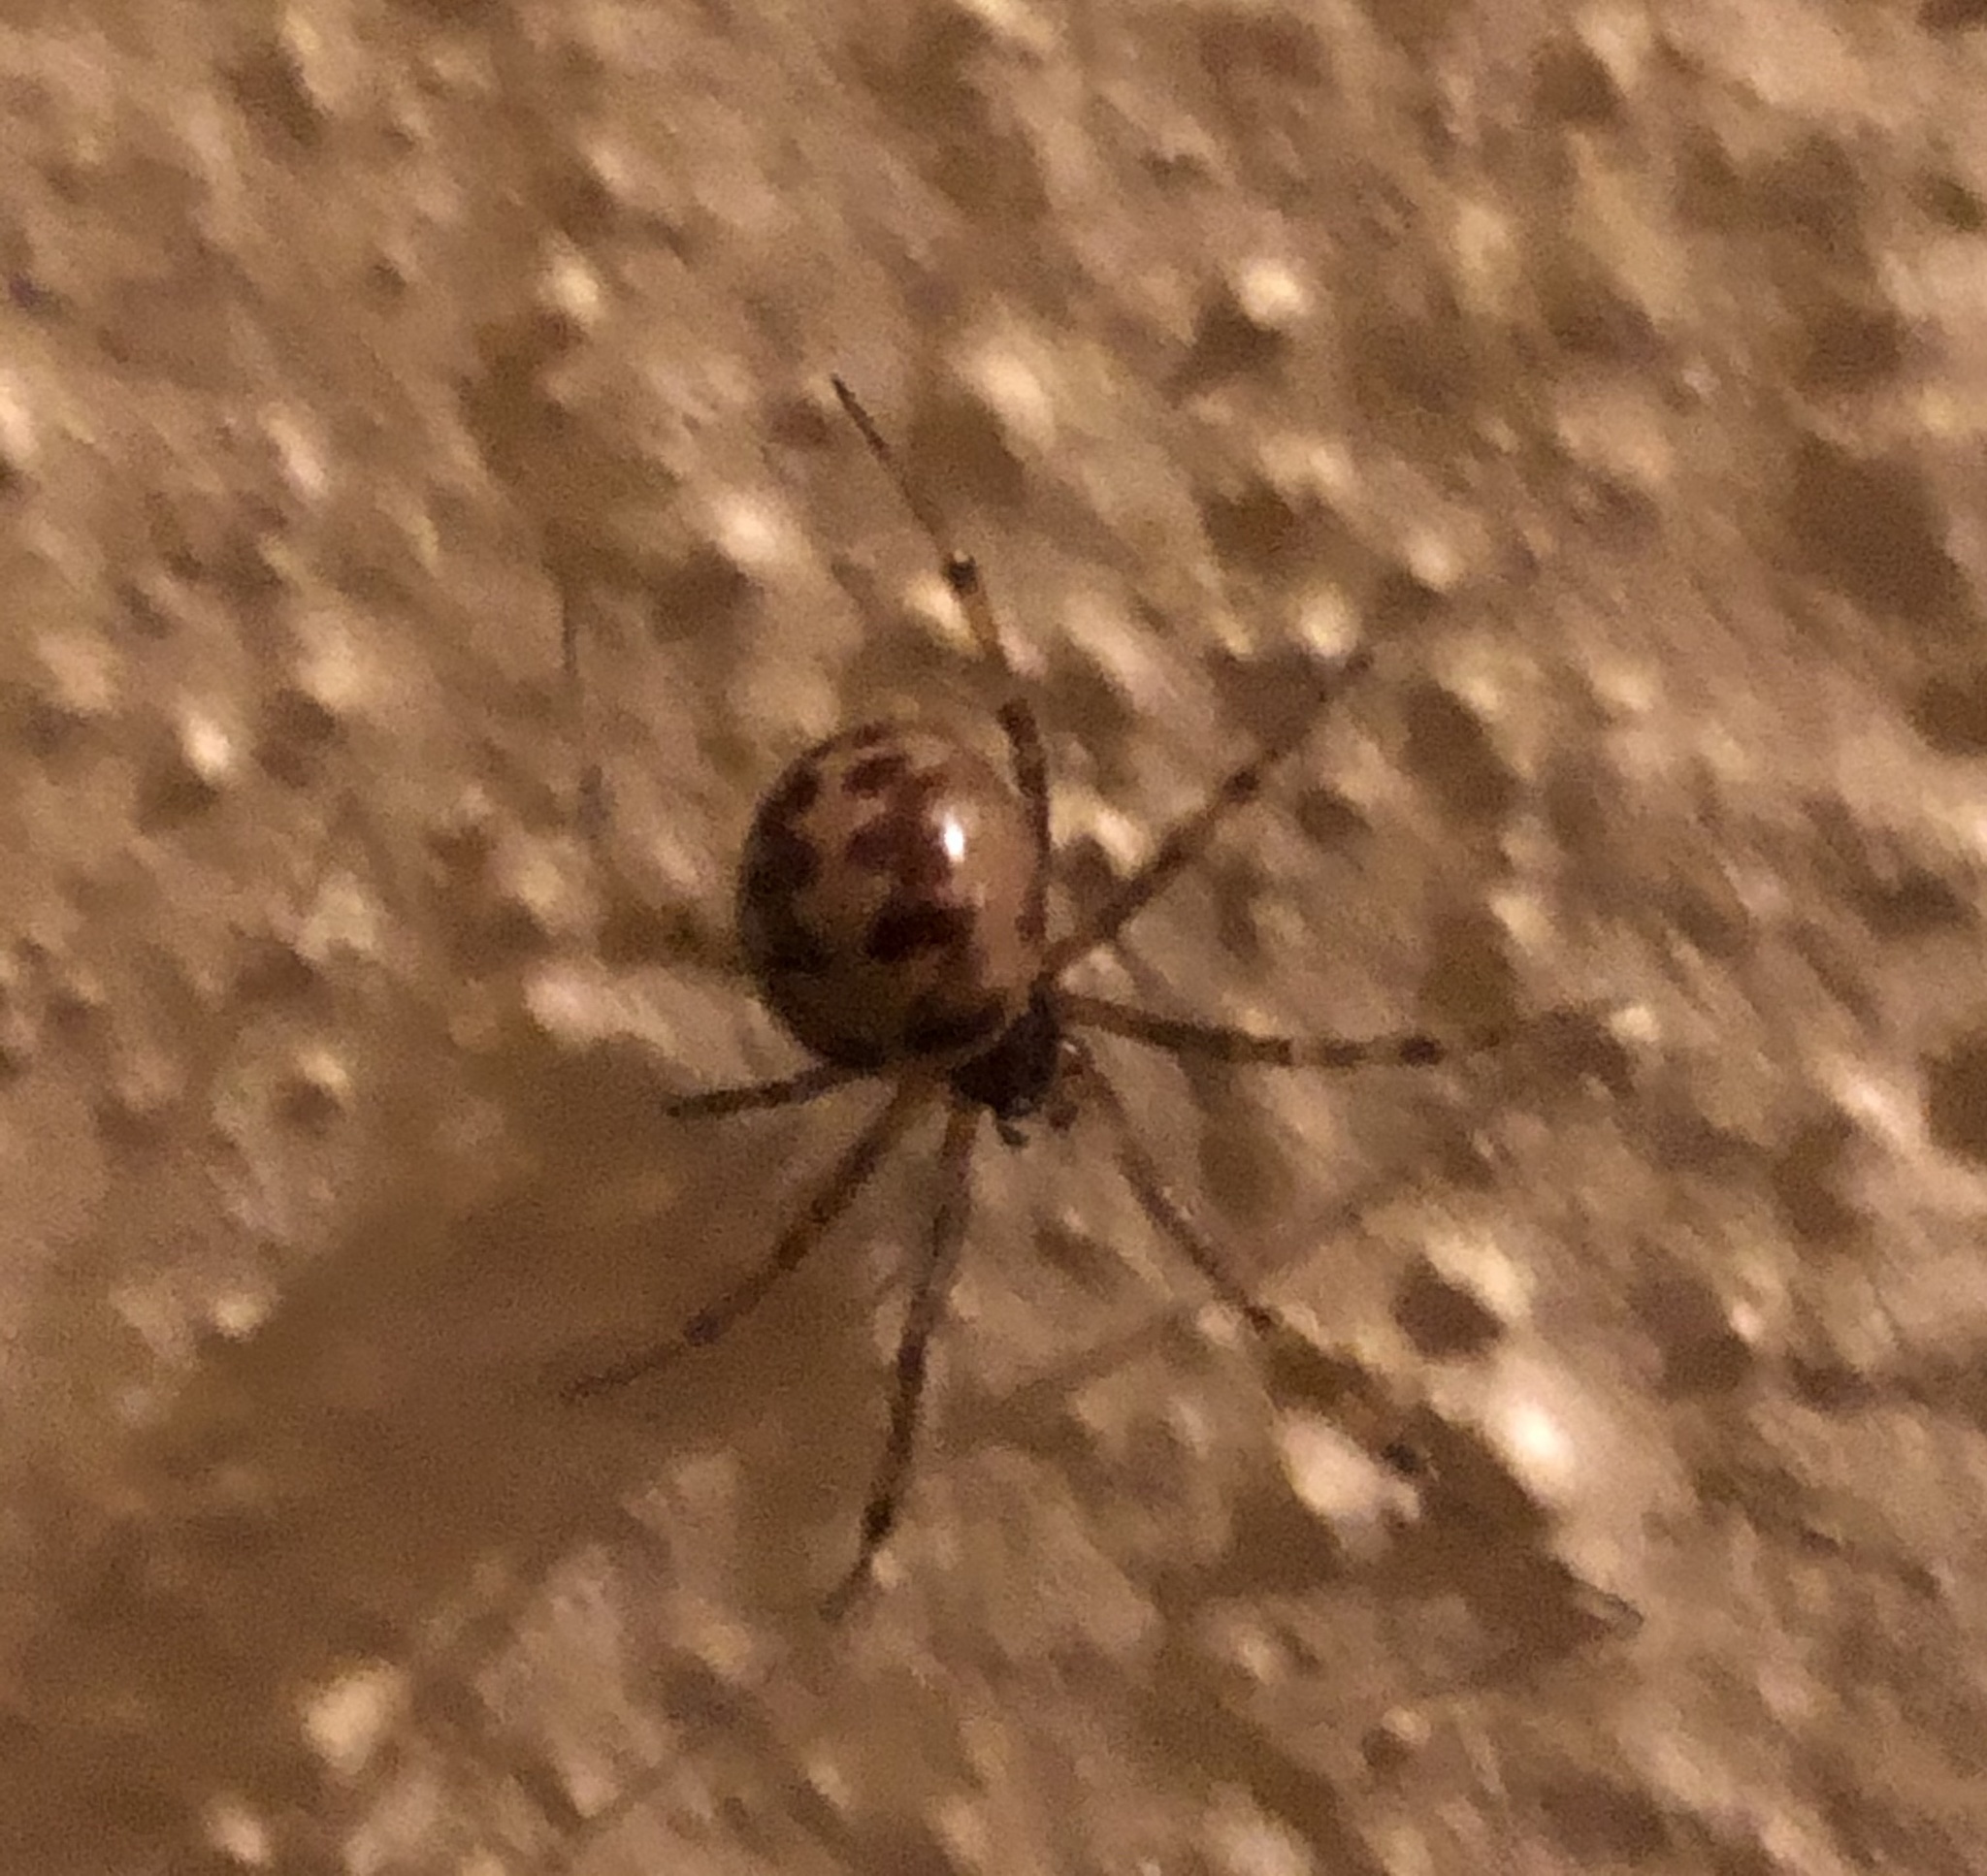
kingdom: Animalia
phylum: Arthropoda
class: Arachnida
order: Araneae
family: Theridiidae
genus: Steatoda
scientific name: Steatoda triangulosa
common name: Triangulate bud spider
